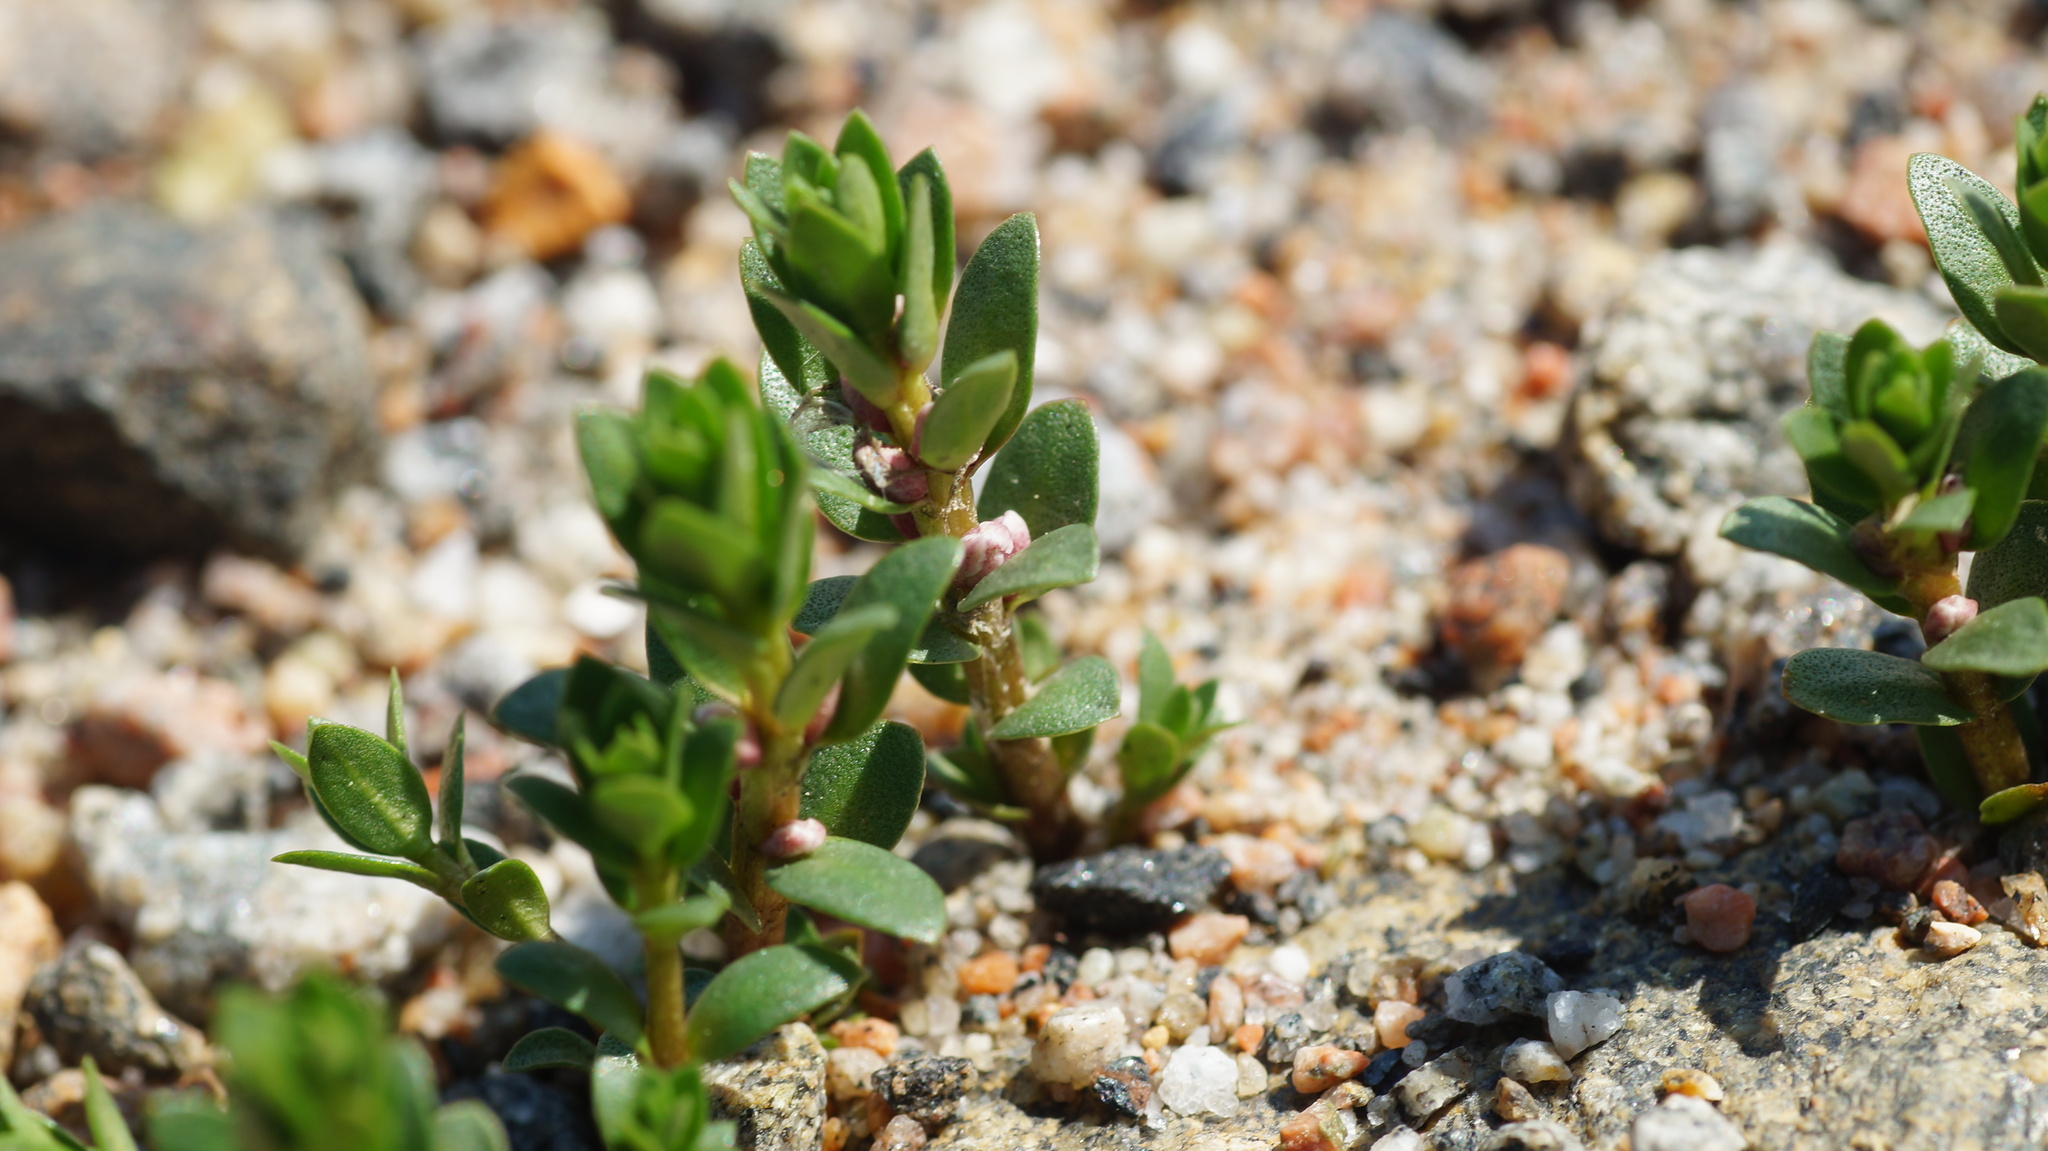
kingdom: Plantae
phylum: Tracheophyta
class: Magnoliopsida
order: Ericales
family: Primulaceae
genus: Lysimachia
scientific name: Lysimachia maritima
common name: Sea milkwort
